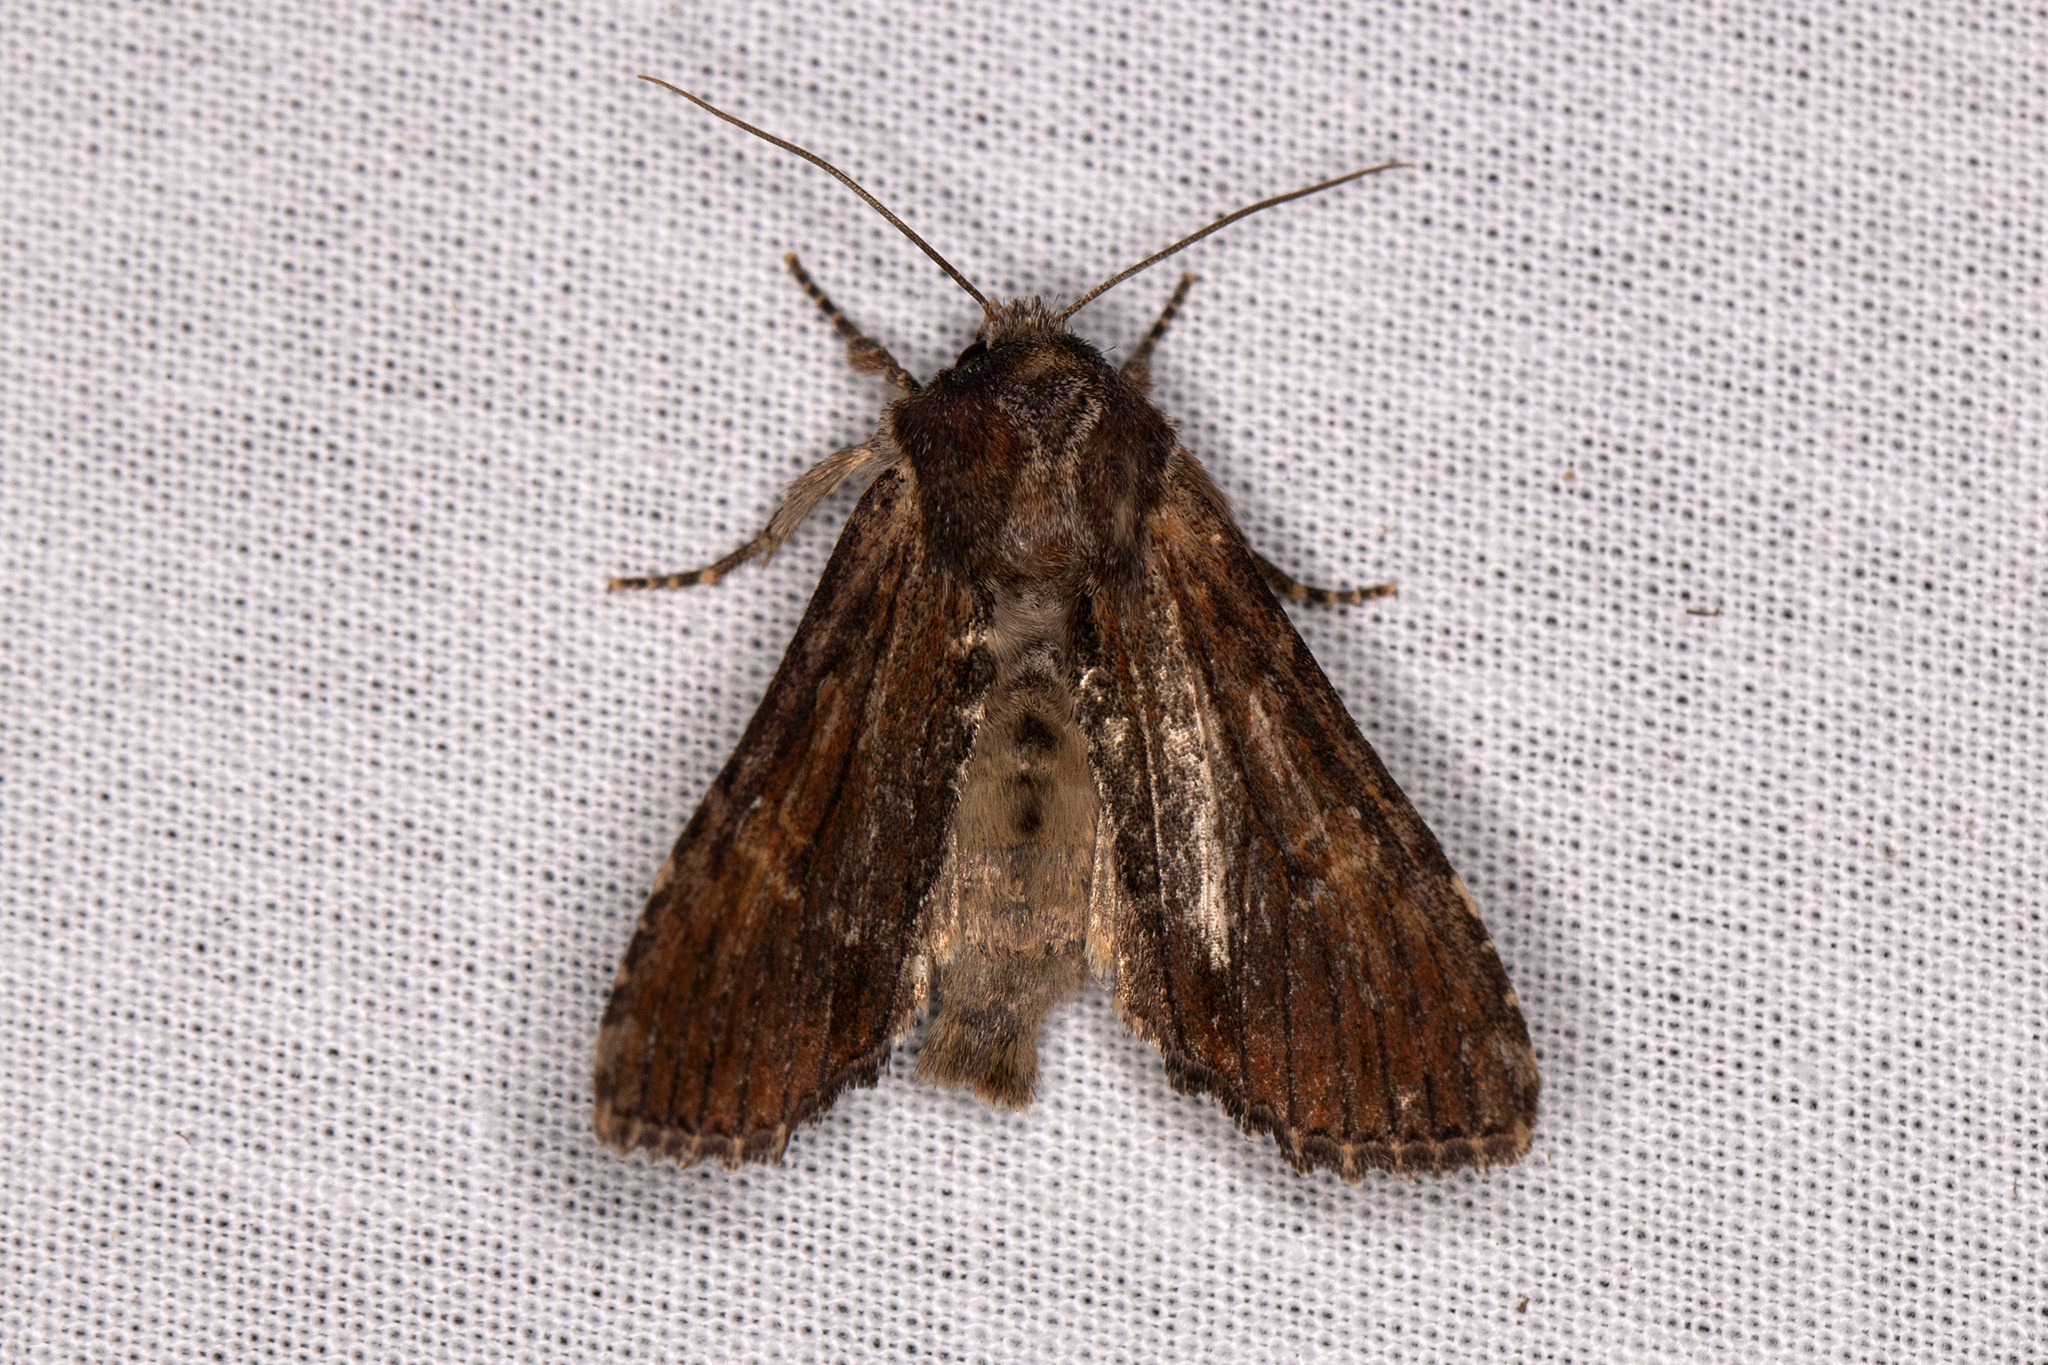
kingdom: Animalia
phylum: Arthropoda
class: Insecta
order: Lepidoptera
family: Noctuidae
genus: Apamea
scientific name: Apamea crenata
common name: Clouded-bordered brindle
